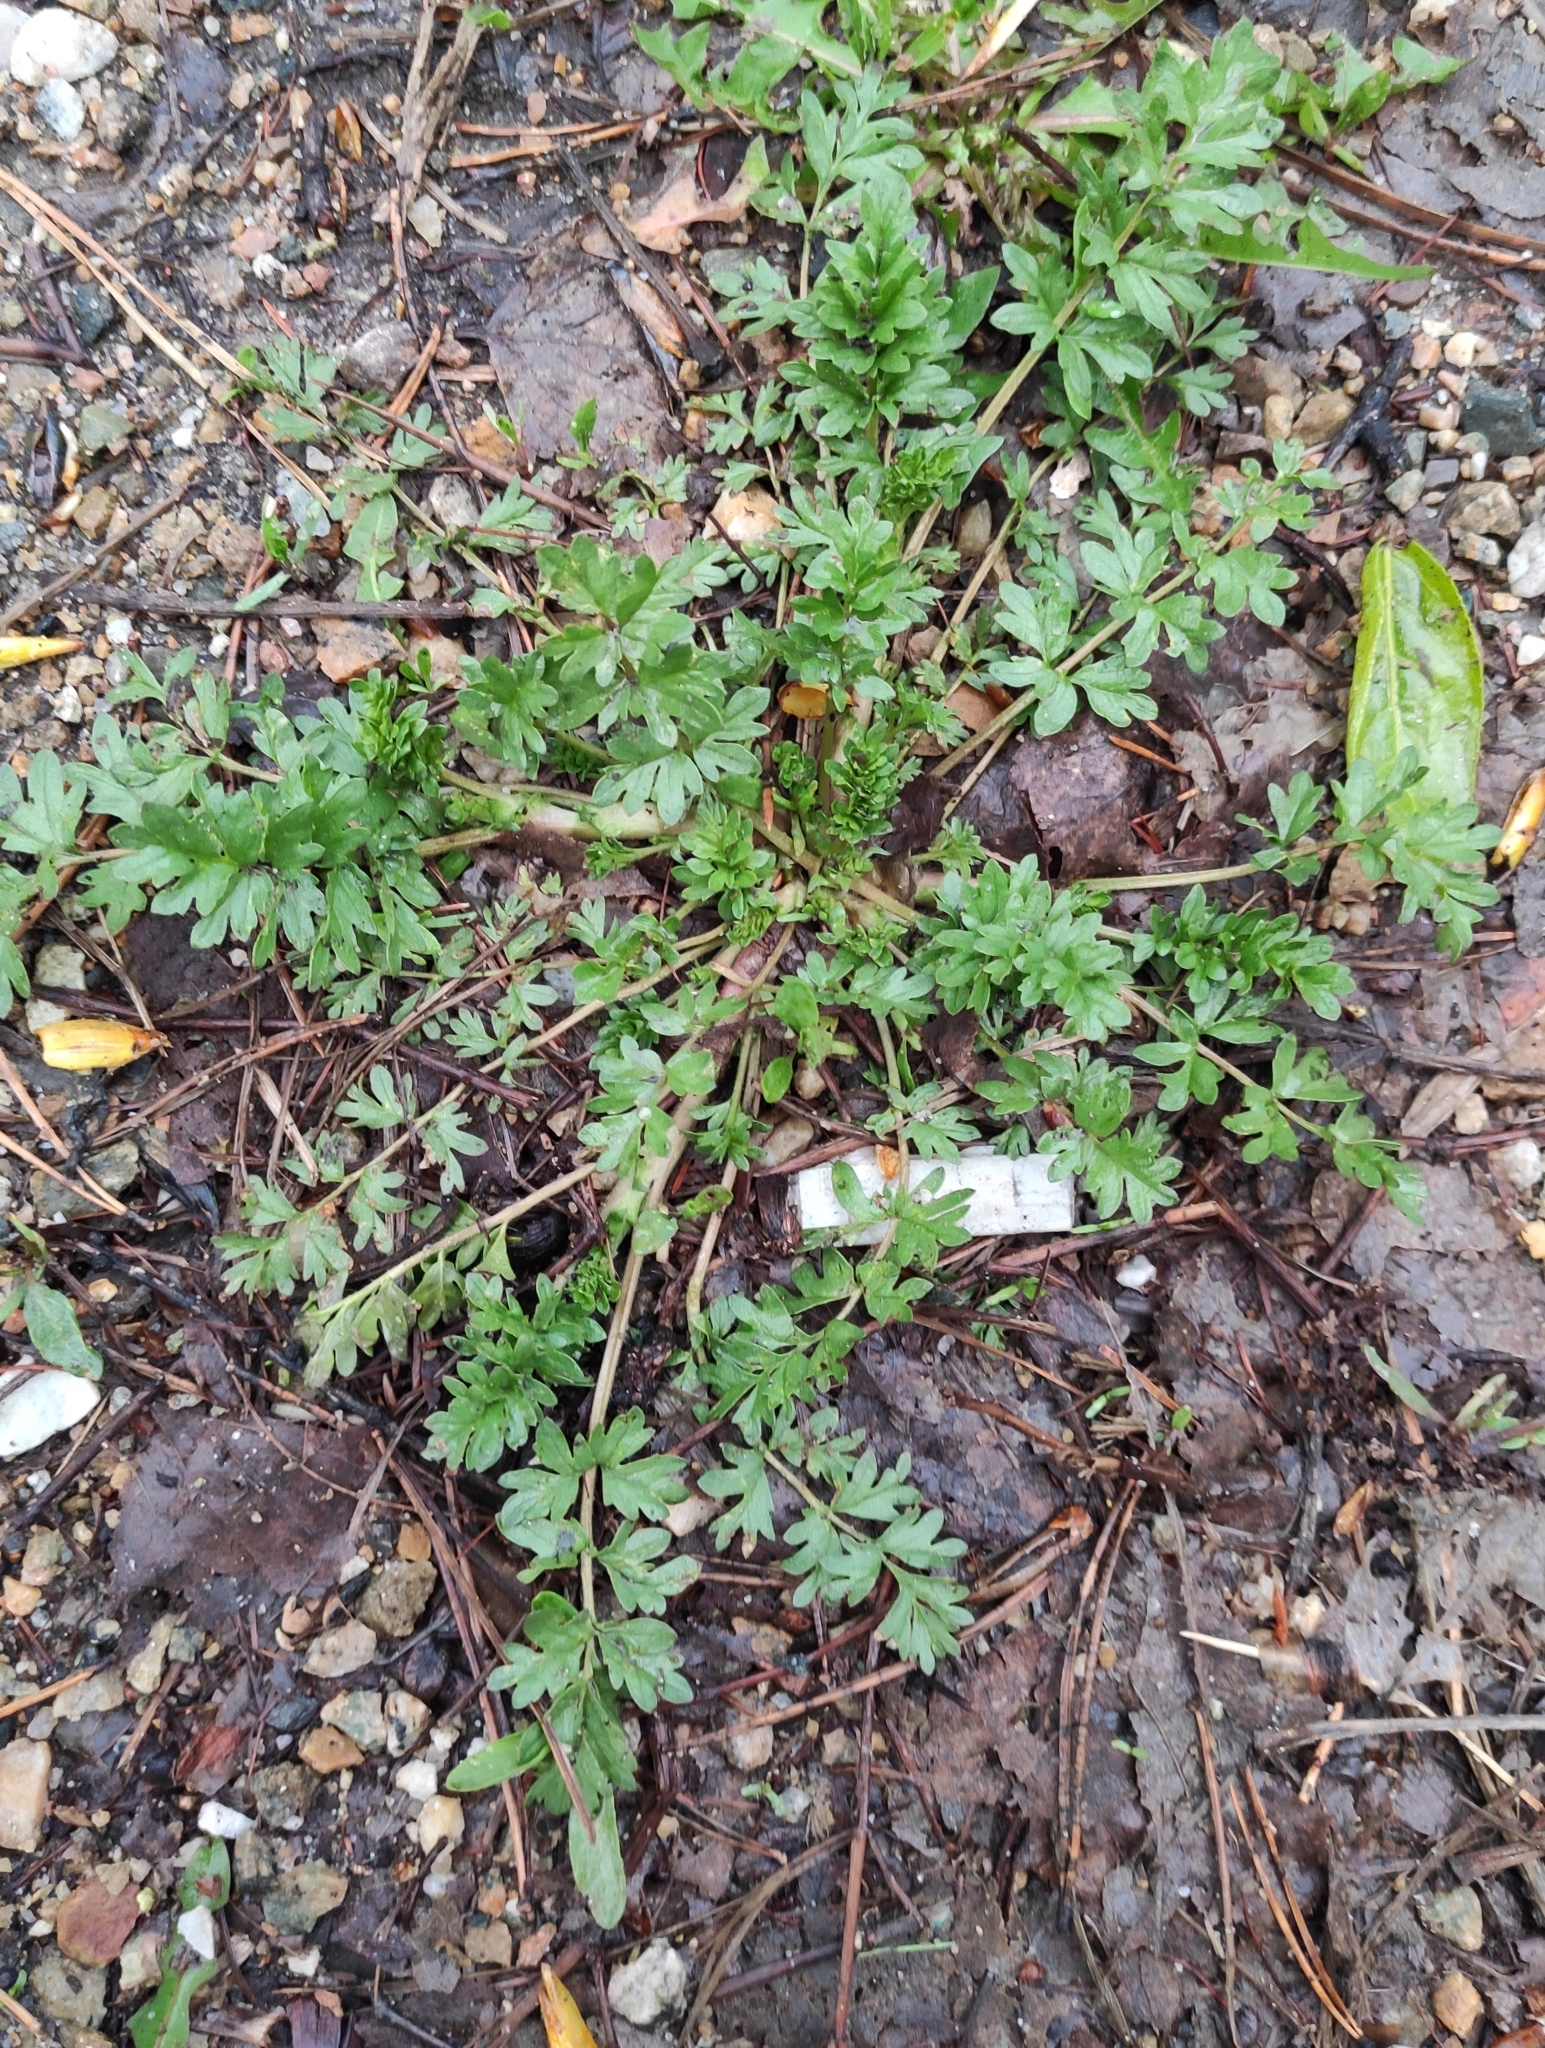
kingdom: Plantae
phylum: Tracheophyta
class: Magnoliopsida
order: Rosales
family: Rosaceae
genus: Potentilla
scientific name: Potentilla supina
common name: Prostrate cinquefoil
